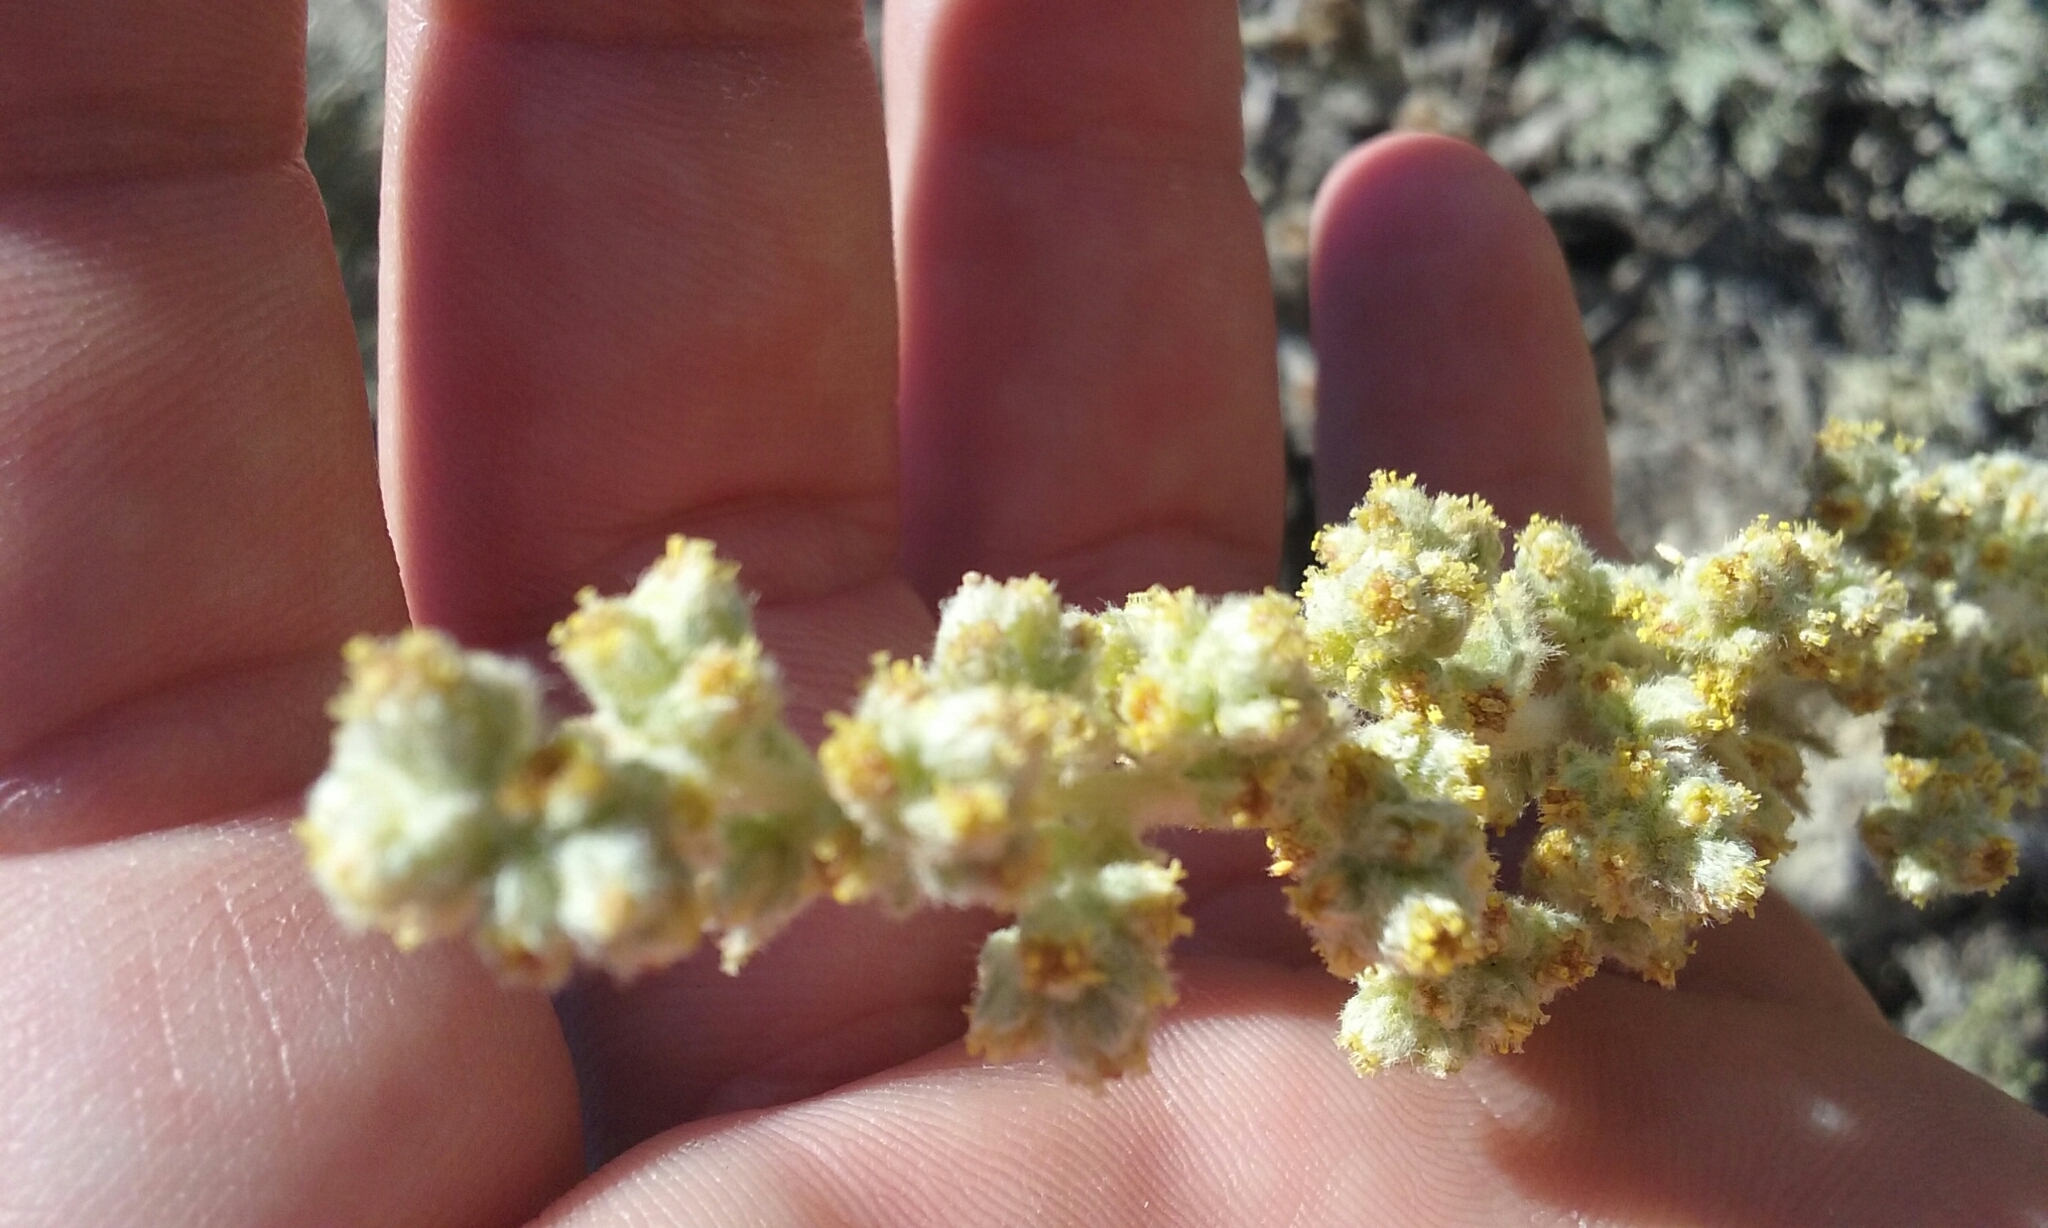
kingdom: Plantae
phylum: Tracheophyta
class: Magnoliopsida
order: Asterales
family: Asteraceae
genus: Artemisia
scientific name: Artemisia pycnocephala
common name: Coastal sagewort
